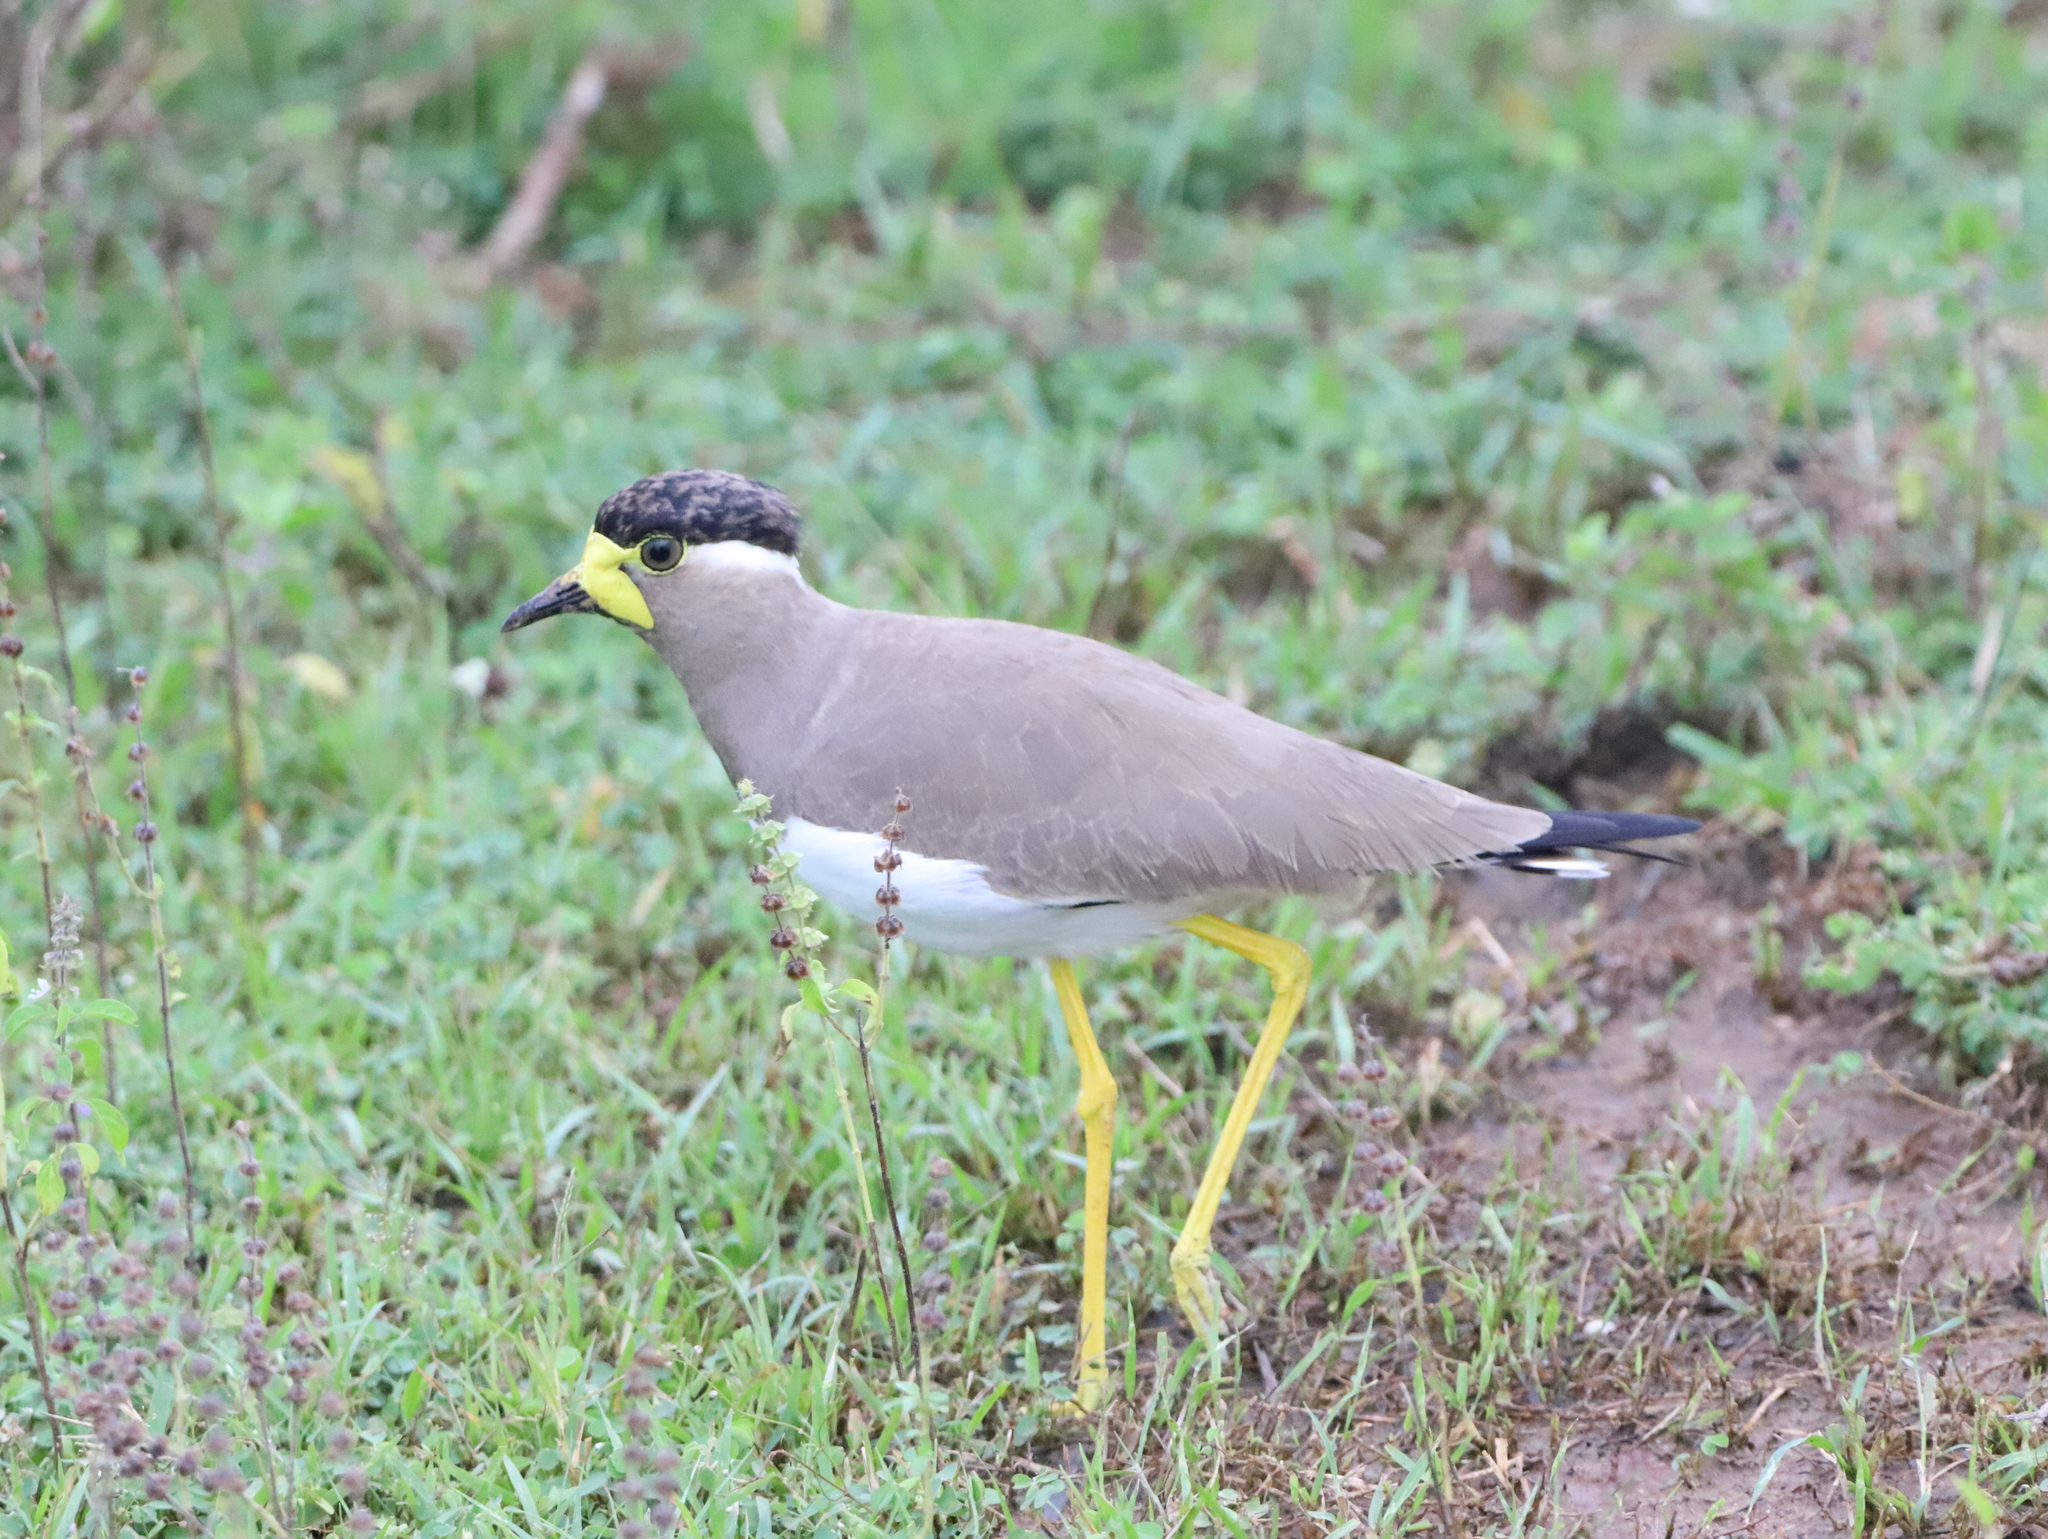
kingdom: Animalia
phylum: Chordata
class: Aves
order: Charadriiformes
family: Charadriidae
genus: Vanellus
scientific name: Vanellus malabaricus
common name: Yellow-wattled lapwing
